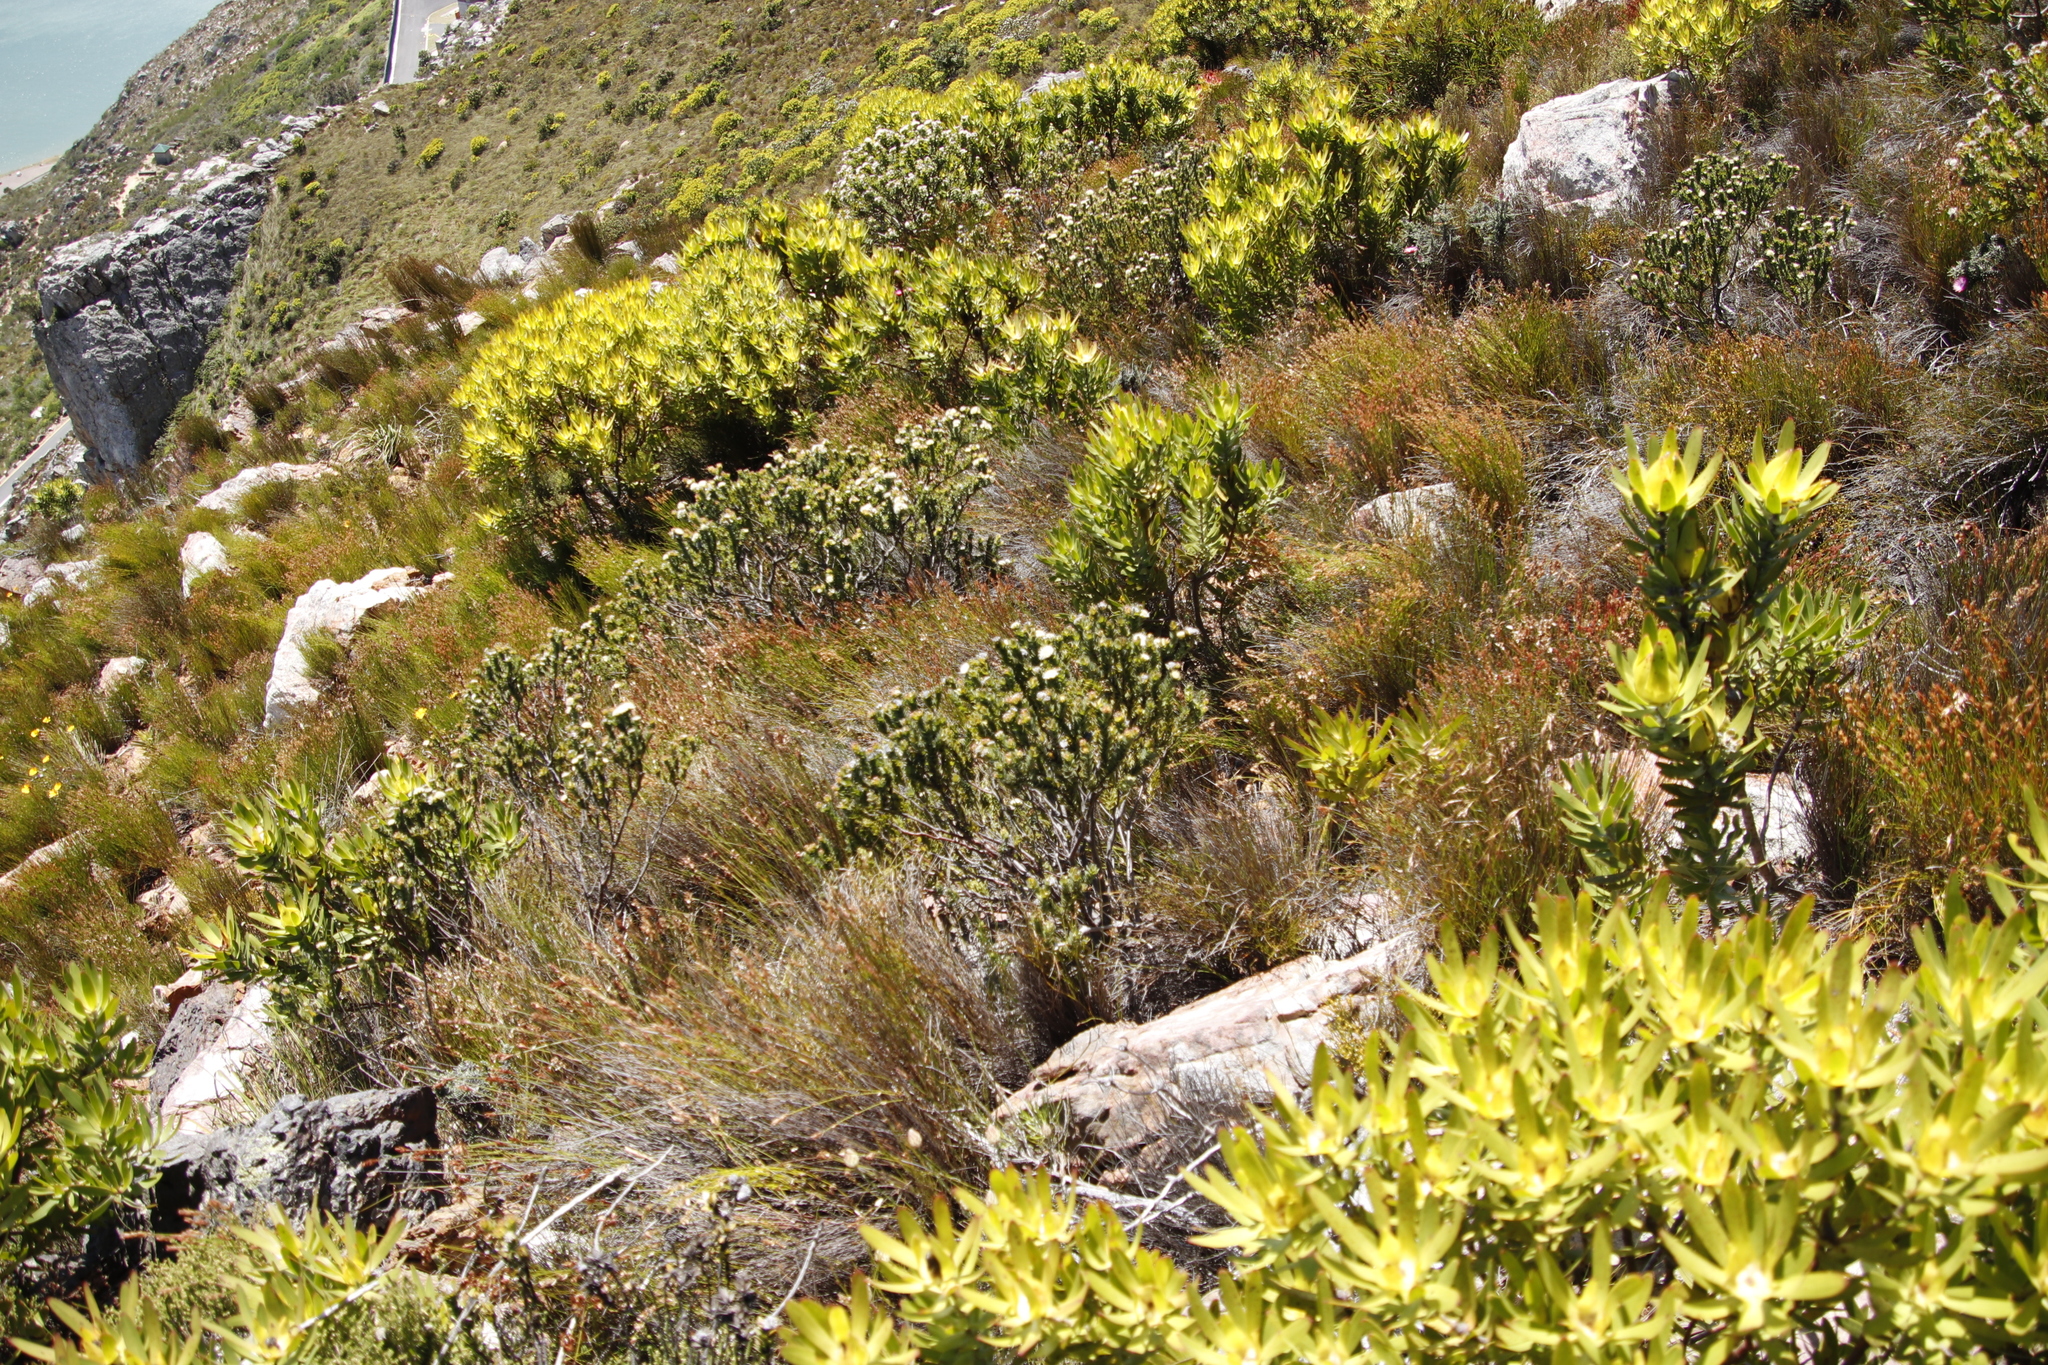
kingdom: Plantae
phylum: Tracheophyta
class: Magnoliopsida
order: Proteales
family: Proteaceae
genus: Diastella
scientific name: Diastella thymelaeoides
